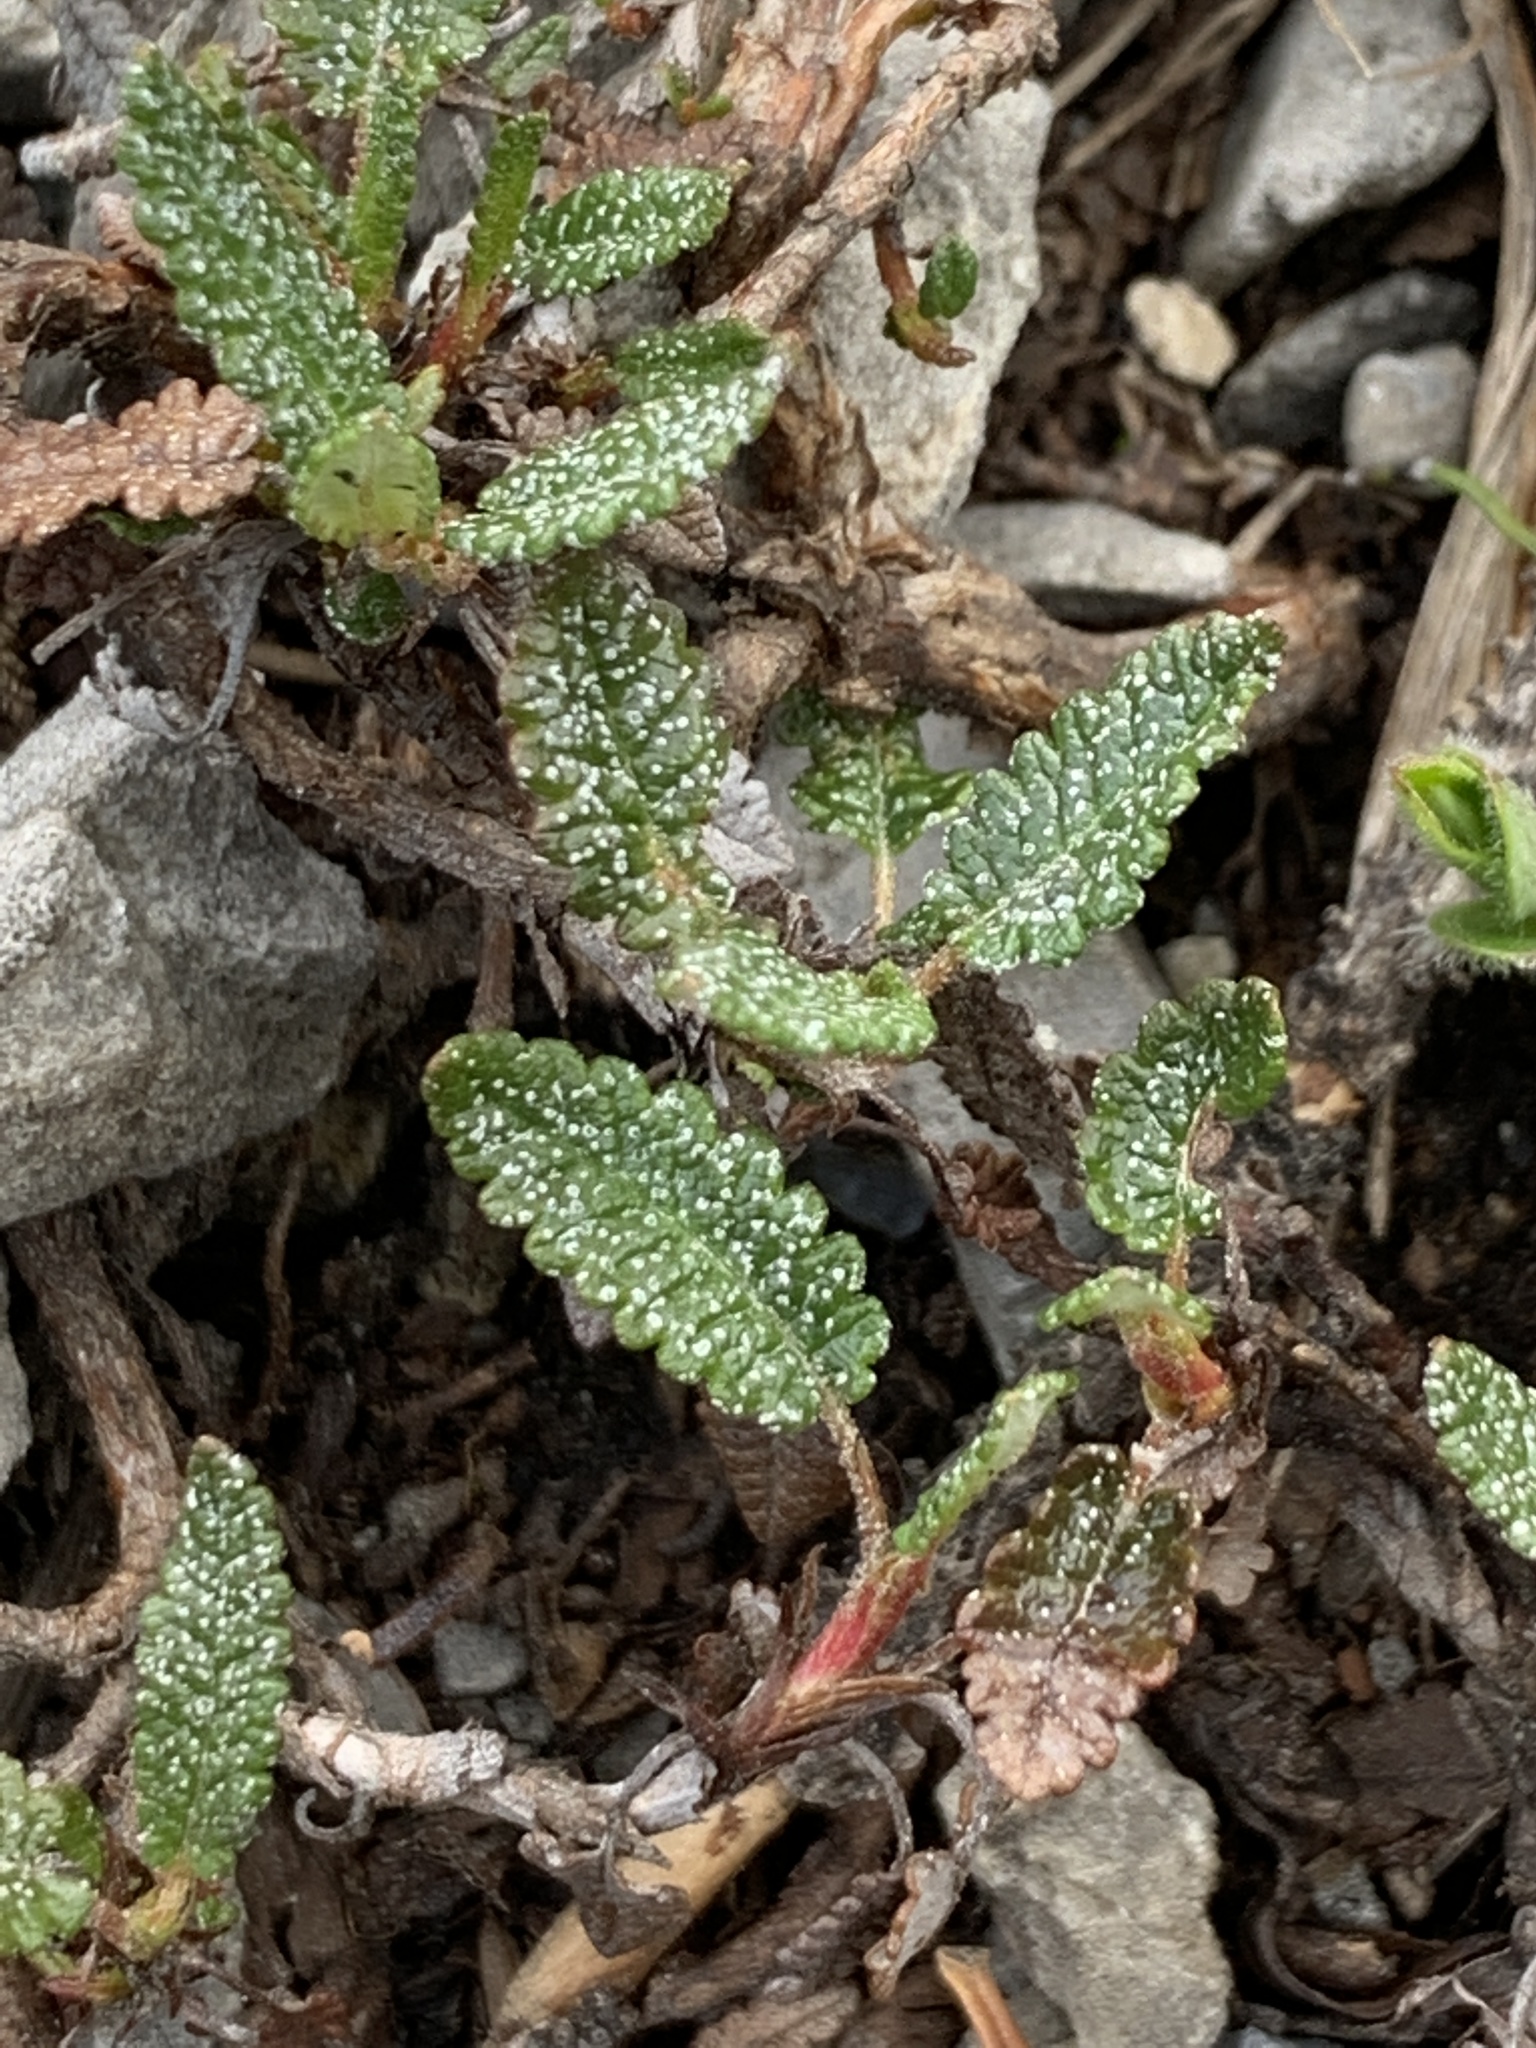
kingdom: Plantae
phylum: Tracheophyta
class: Magnoliopsida
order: Rosales
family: Rosaceae
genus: Dryas
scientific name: Dryas octopetala
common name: Eight-petal mountain-avens
